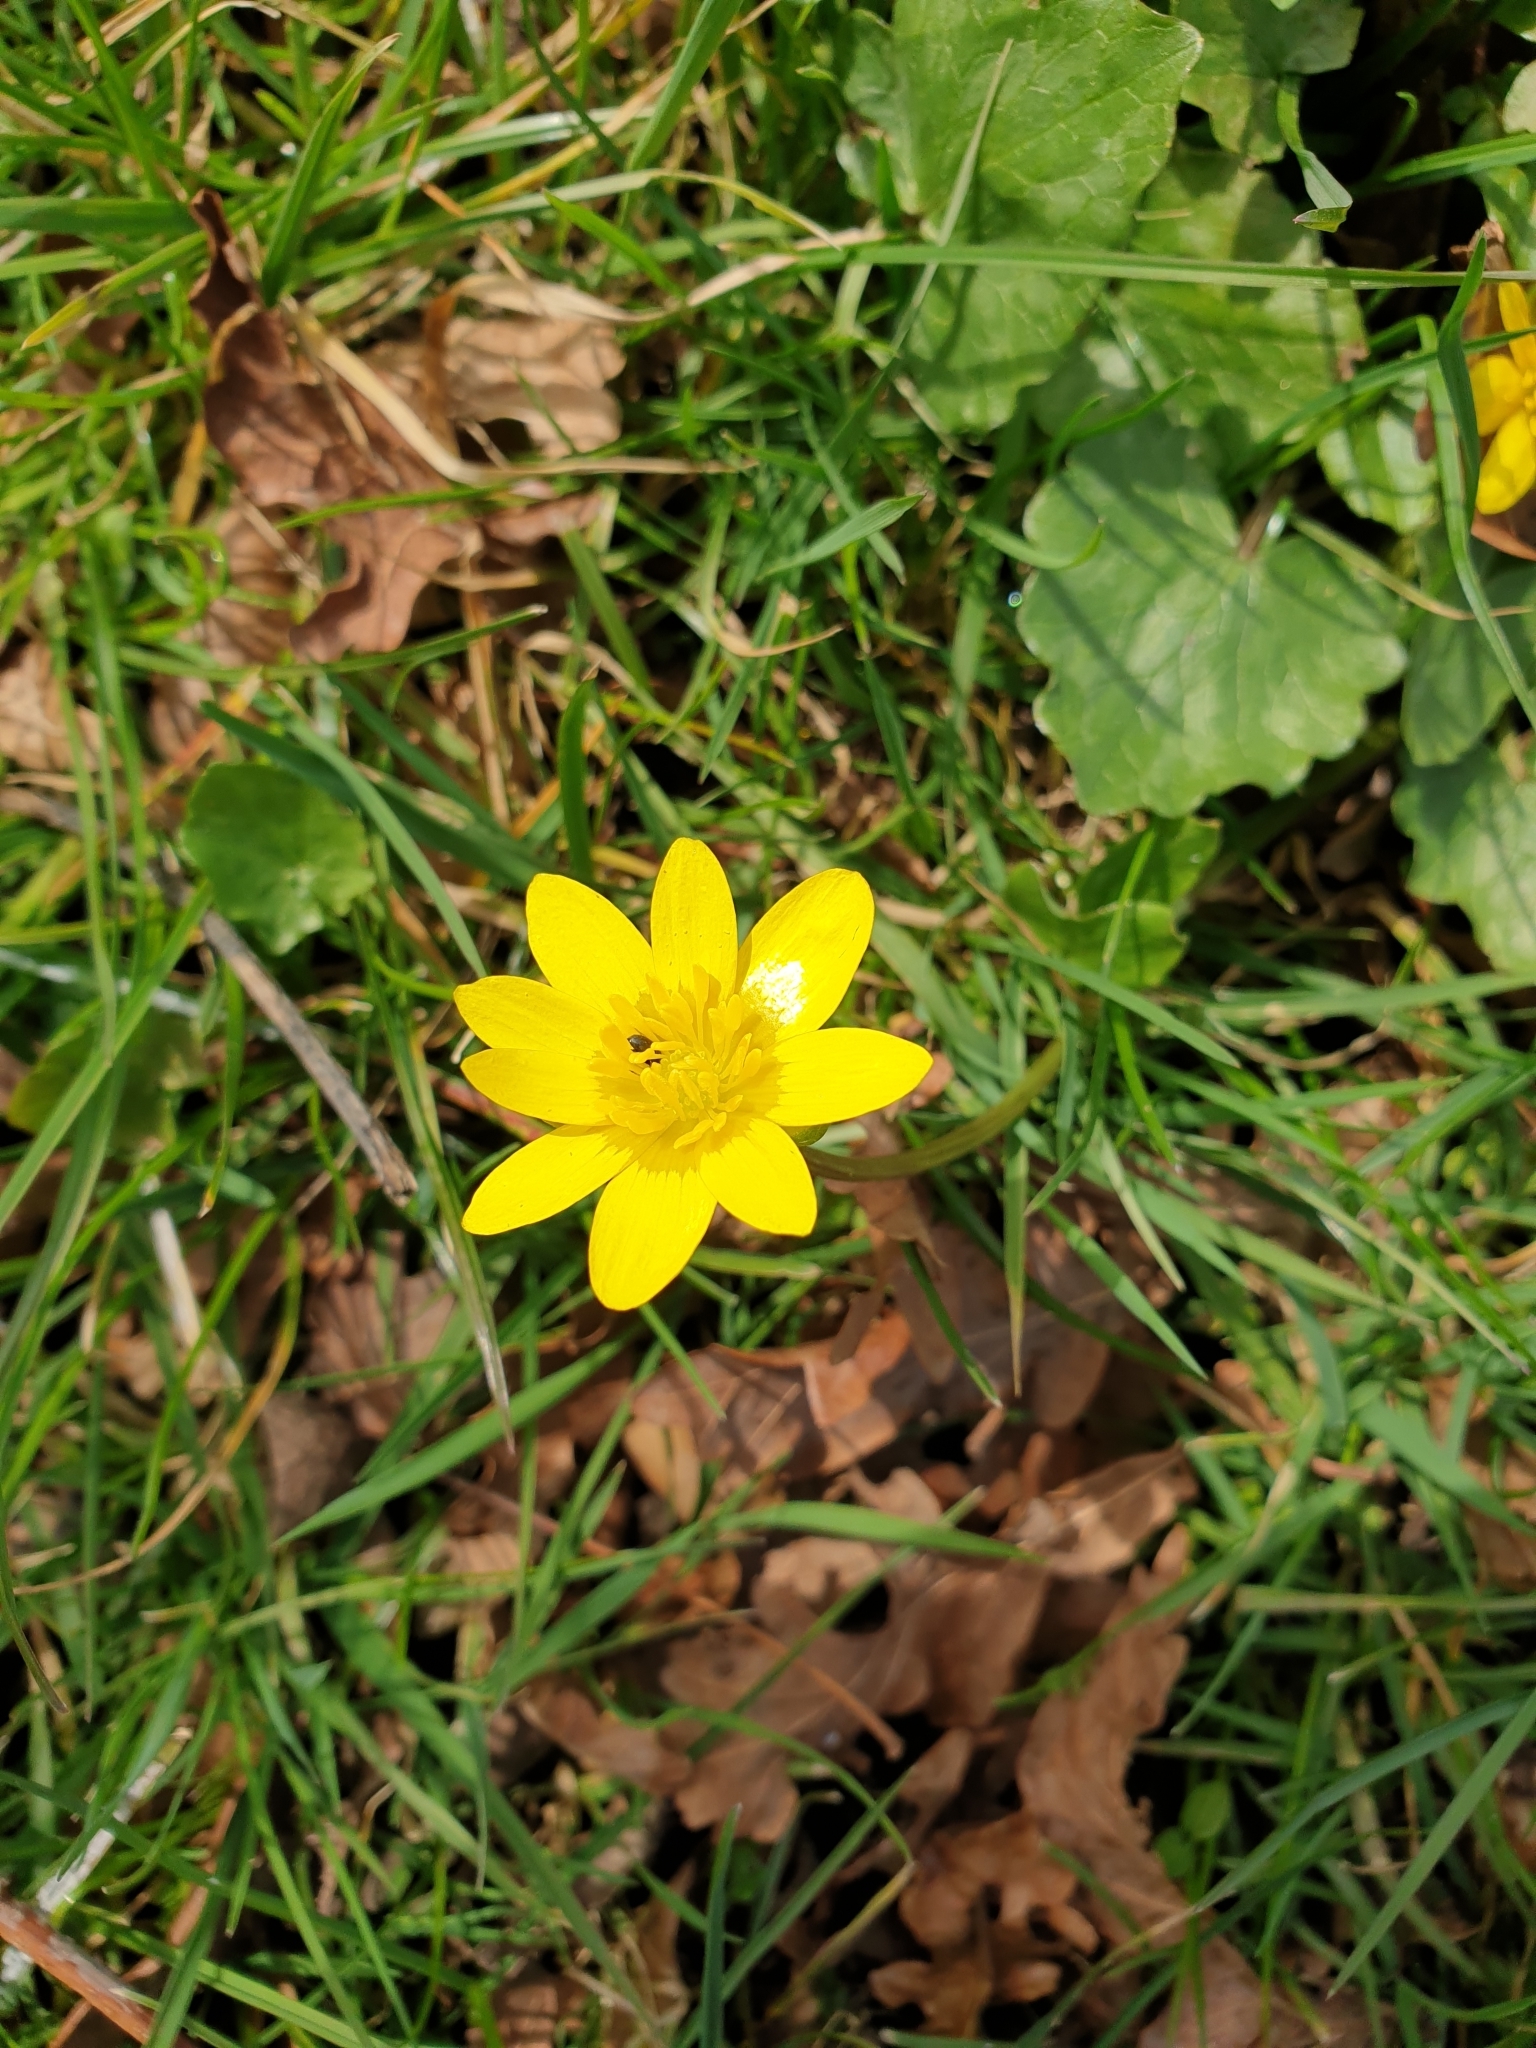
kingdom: Plantae
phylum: Tracheophyta
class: Magnoliopsida
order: Ranunculales
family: Ranunculaceae
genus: Ficaria
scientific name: Ficaria verna
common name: Lesser celandine
